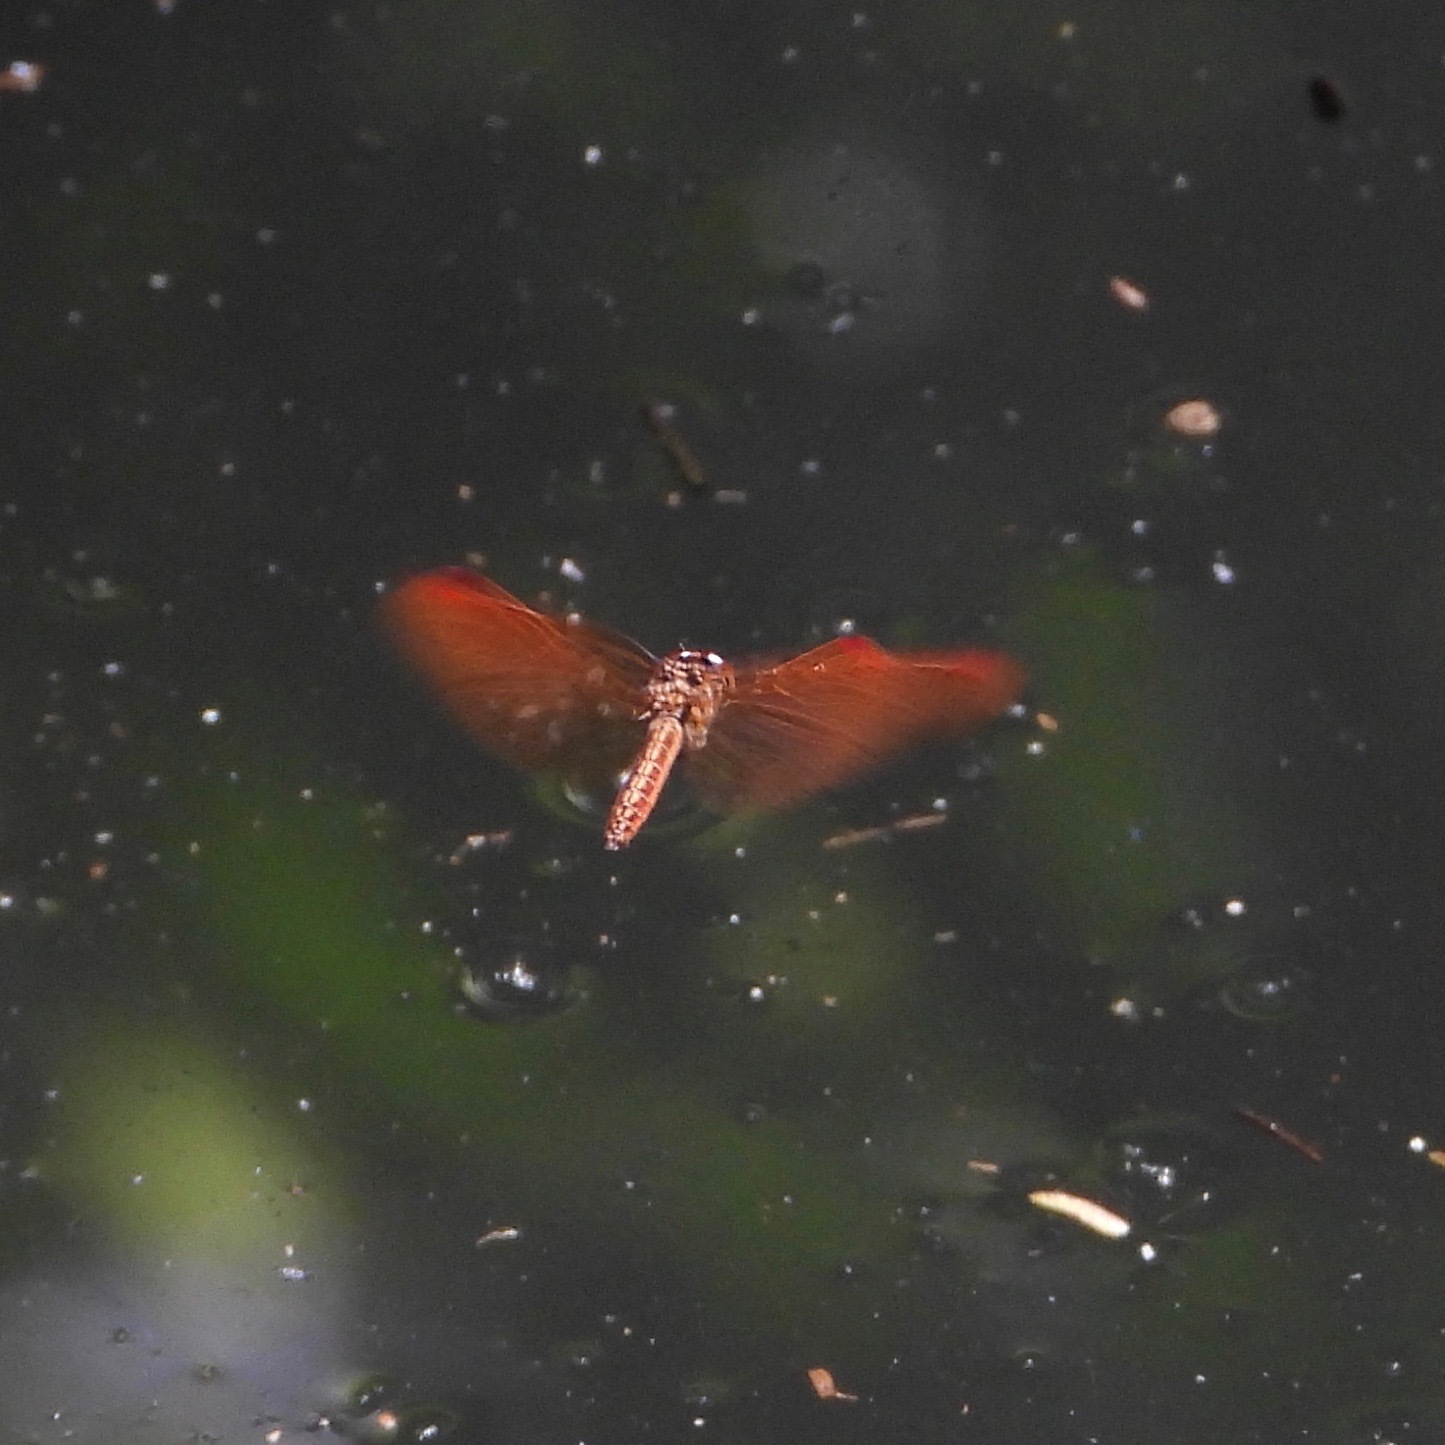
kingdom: Animalia
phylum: Arthropoda
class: Insecta
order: Odonata
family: Libellulidae
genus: Perithemis
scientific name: Perithemis domitia
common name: Slough amberwing
